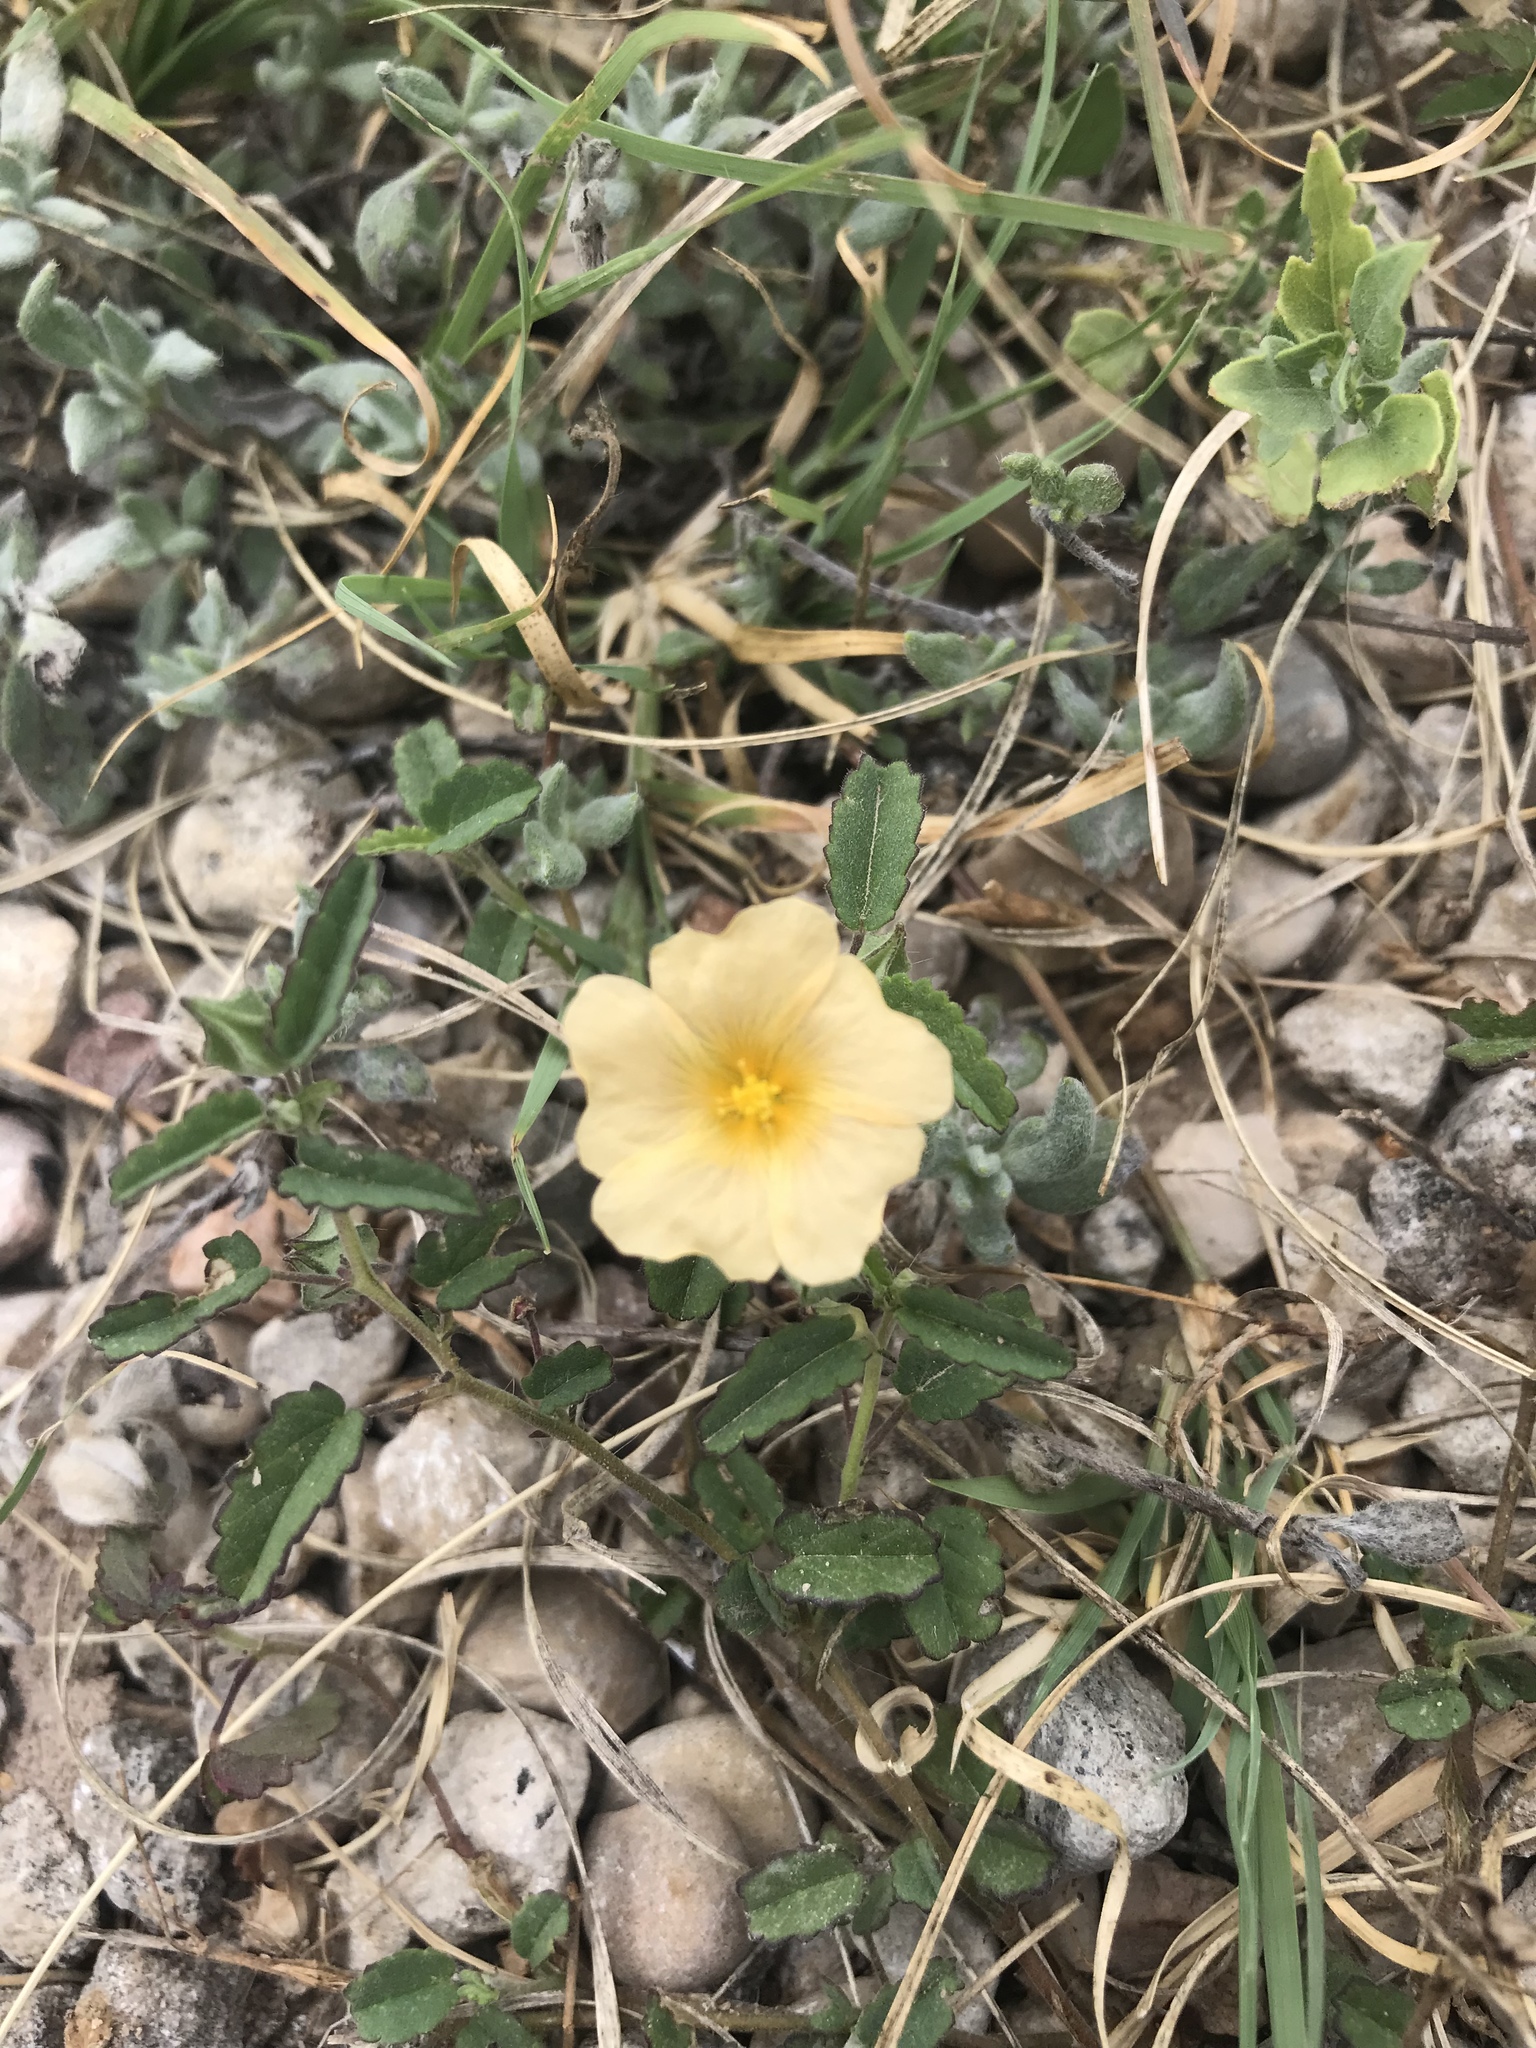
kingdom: Plantae
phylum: Tracheophyta
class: Magnoliopsida
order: Malvales
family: Malvaceae
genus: Sida
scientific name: Sida abutilifolia
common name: Spreading fanpetals
